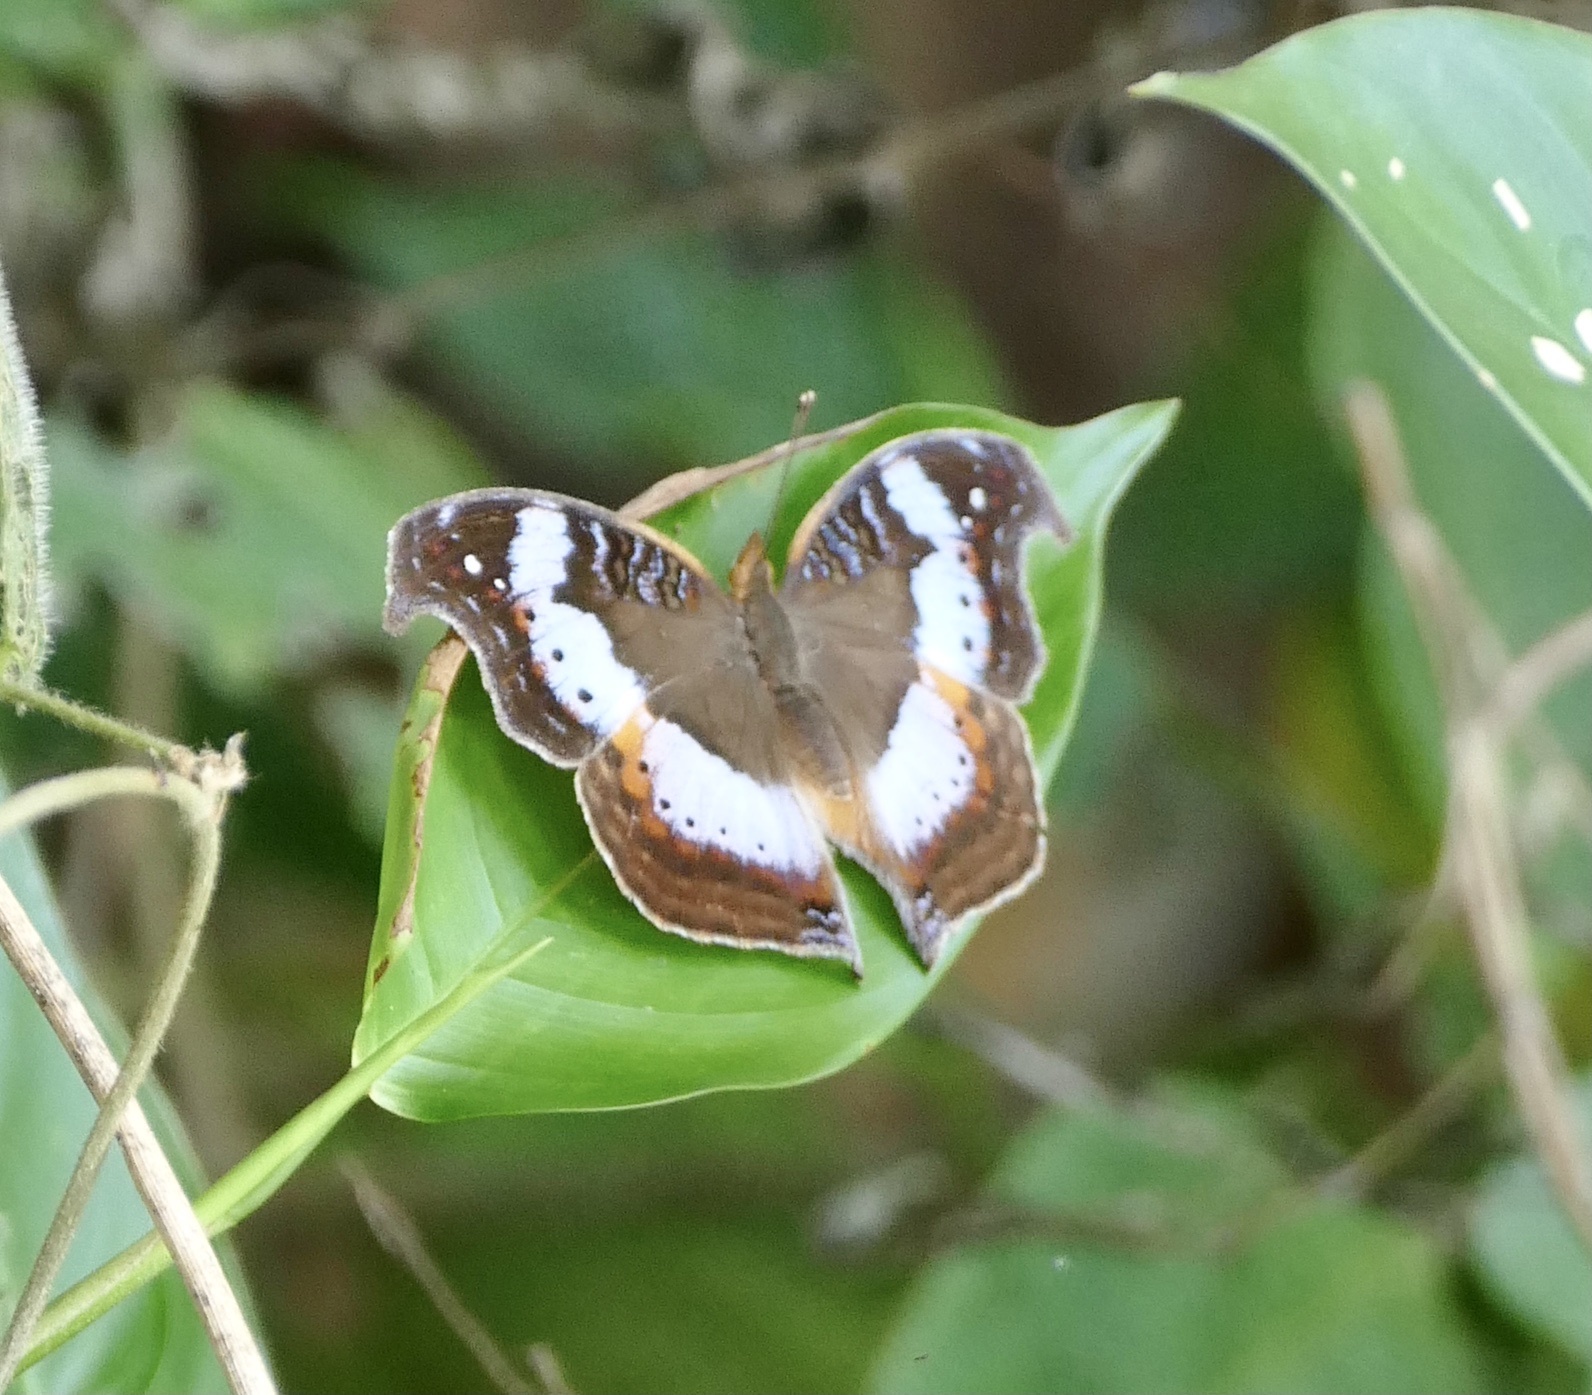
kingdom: Animalia
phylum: Arthropoda
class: Insecta
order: Lepidoptera
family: Nymphalidae
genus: Precis
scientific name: Precis pelarga
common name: Fashion commodore
